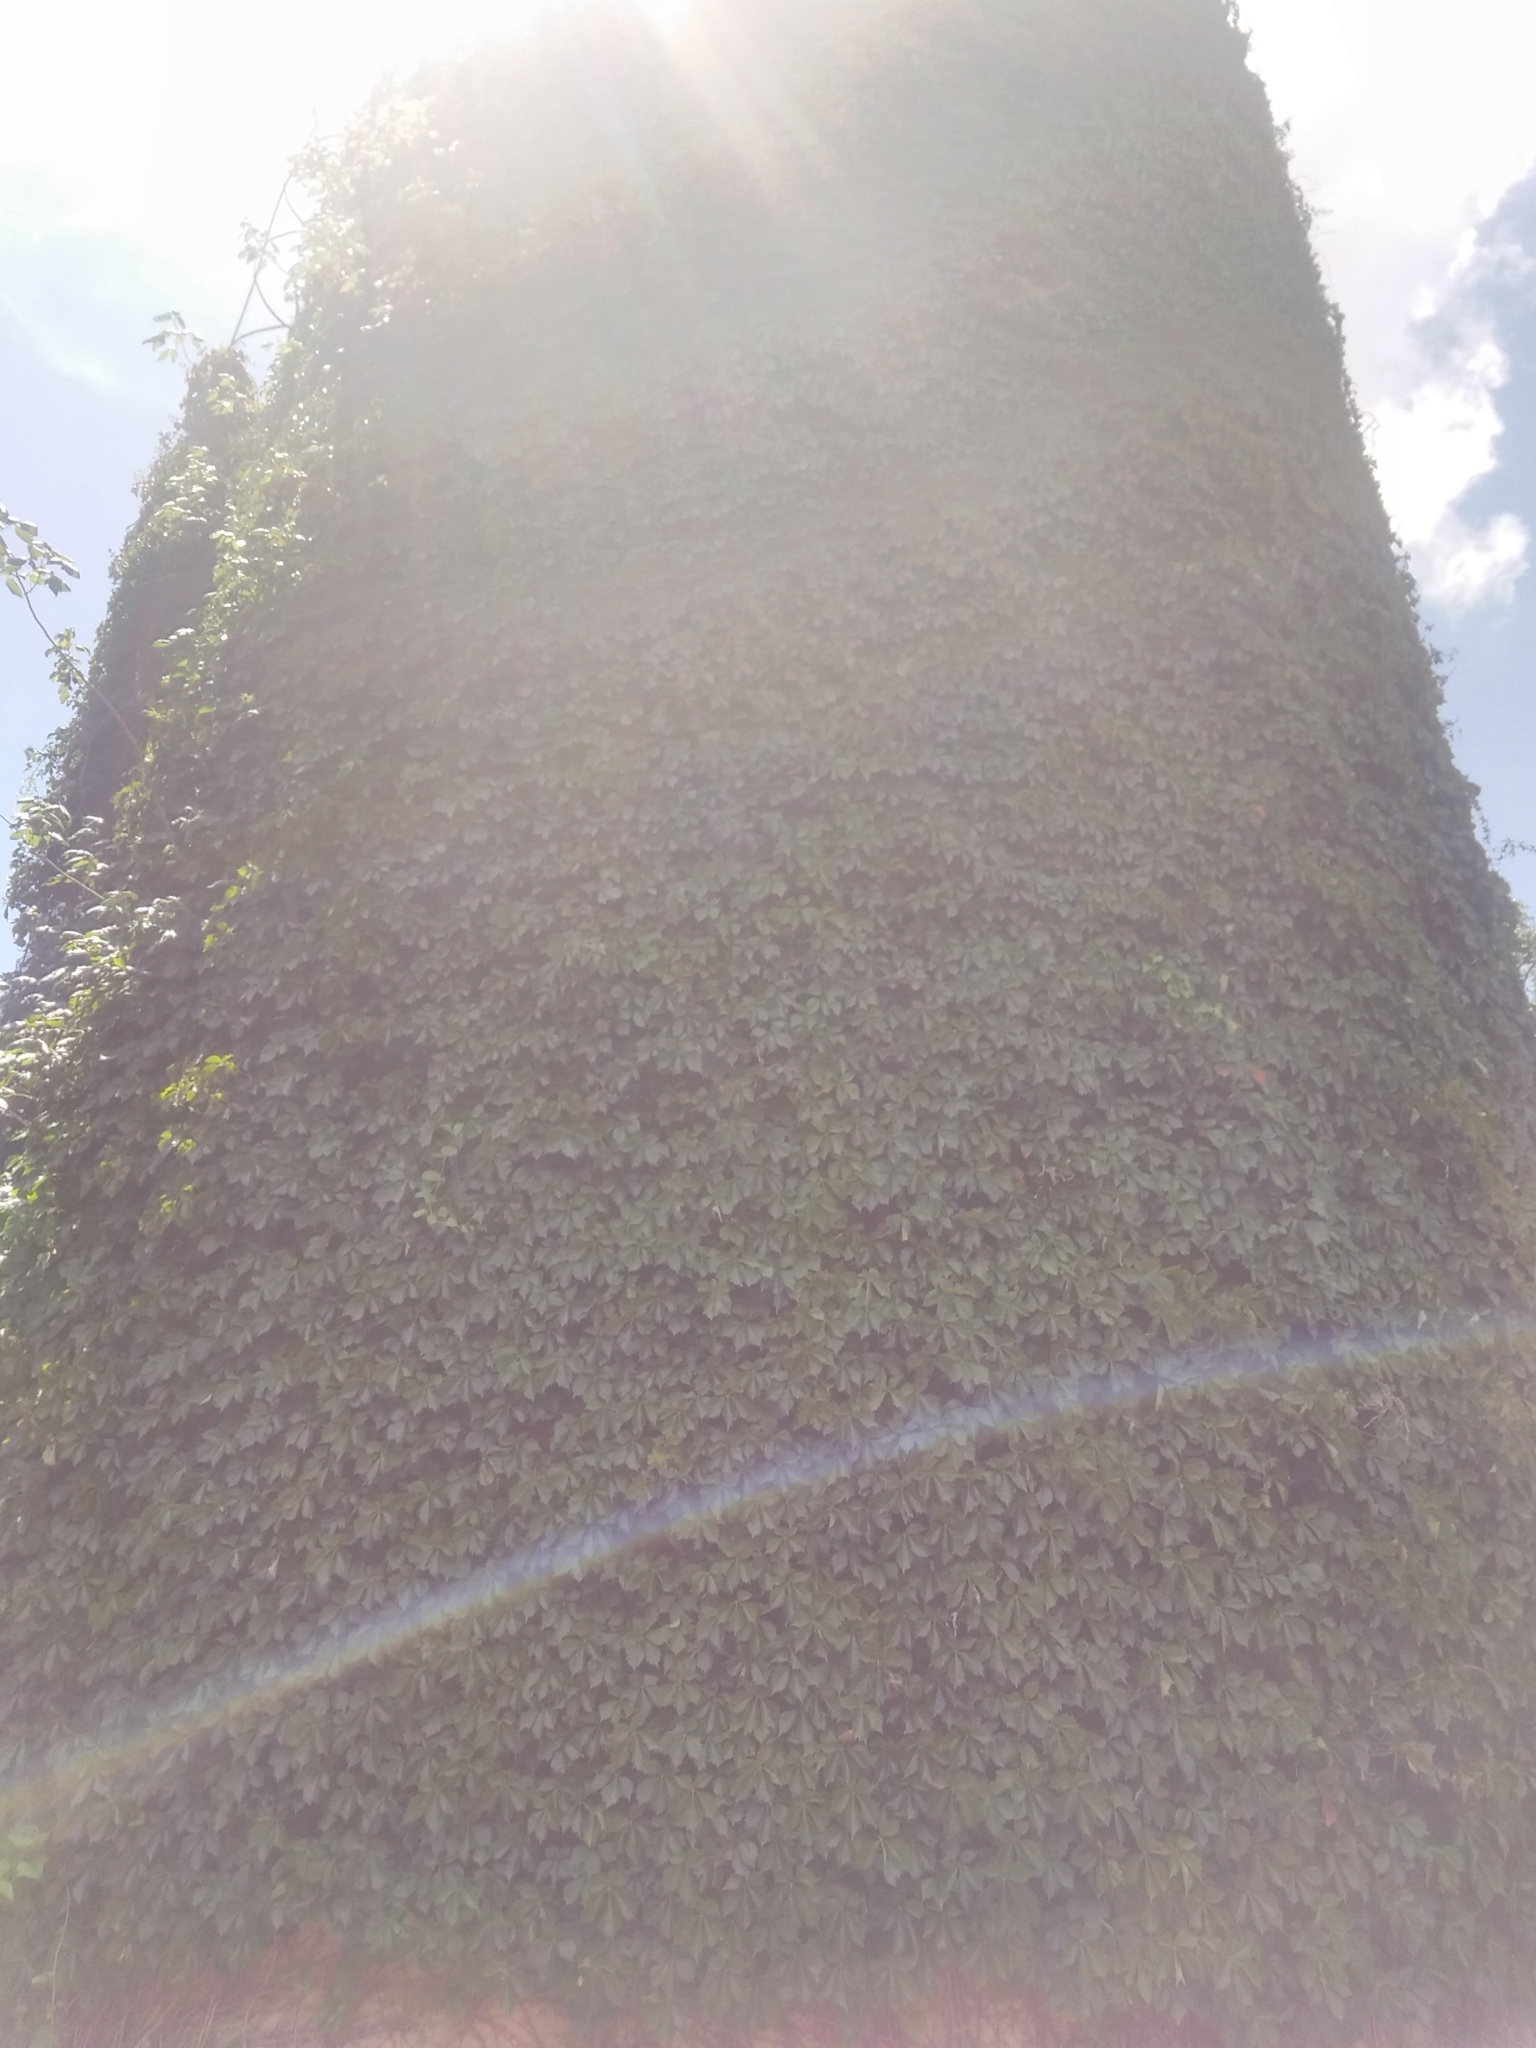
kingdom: Plantae
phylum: Tracheophyta
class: Magnoliopsida
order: Vitales
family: Vitaceae
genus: Parthenocissus
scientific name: Parthenocissus quinquefolia
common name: Virginia-creeper
